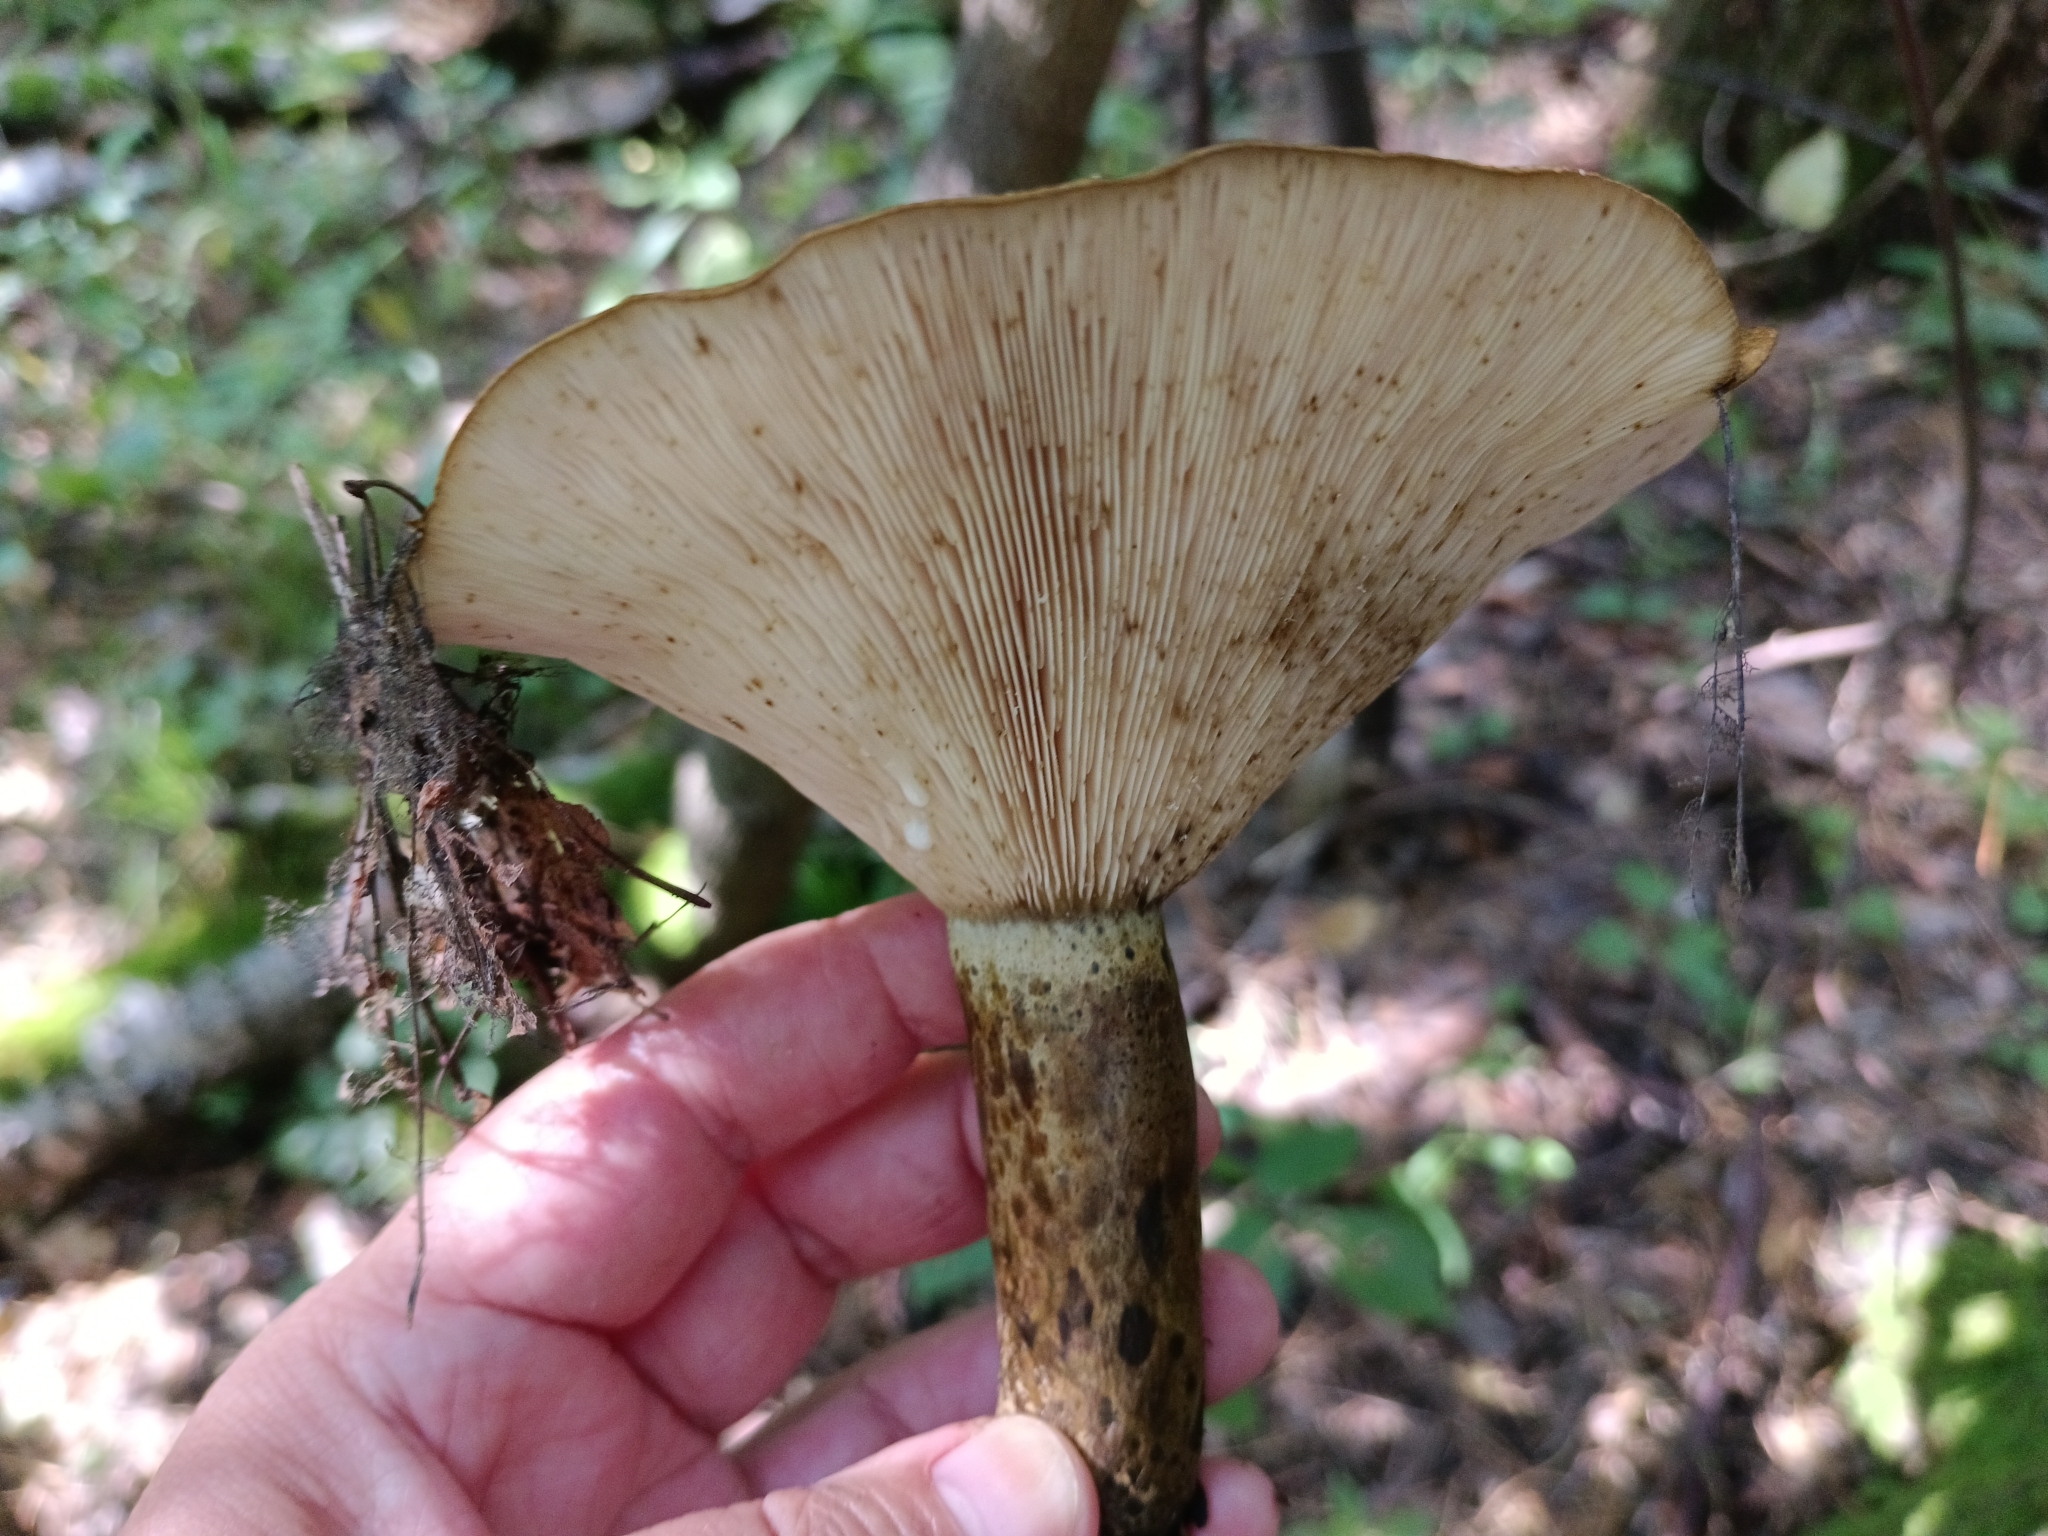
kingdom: Fungi
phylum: Basidiomycota
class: Agaricomycetes
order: Russulales
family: Russulaceae
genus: Lactarius
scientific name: Lactarius turpis
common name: Ugly milk-cap
